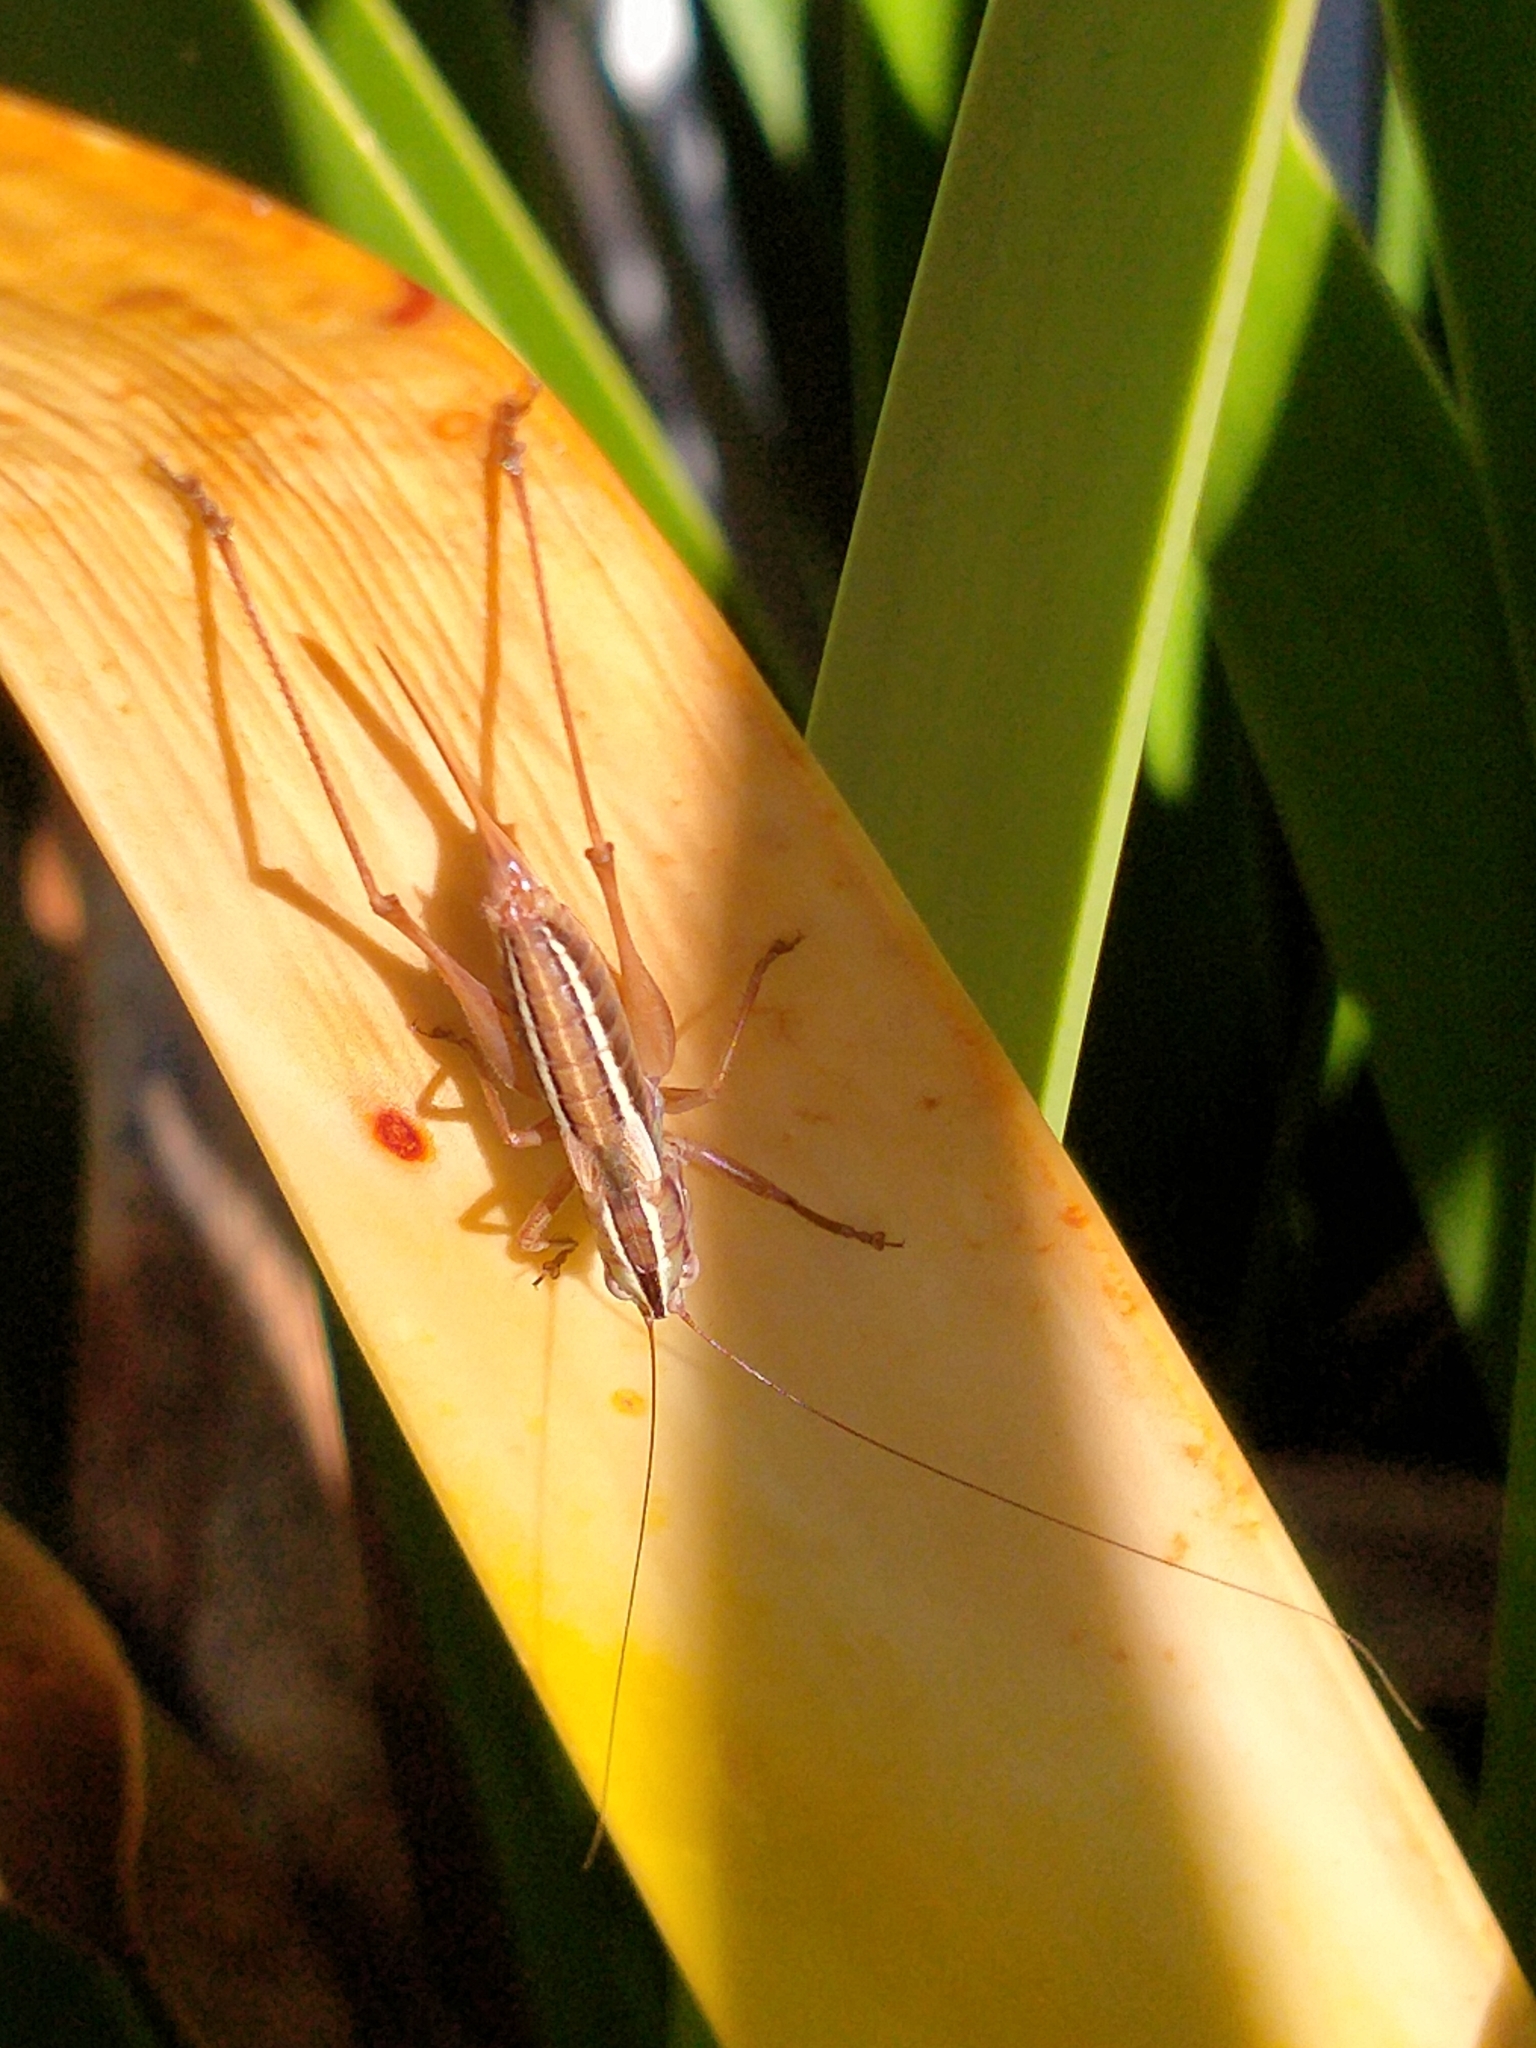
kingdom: Animalia
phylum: Arthropoda
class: Insecta
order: Orthoptera
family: Tettigoniidae
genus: Conocephalus
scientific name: Conocephalus bilineatus
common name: Small meadow katydid
